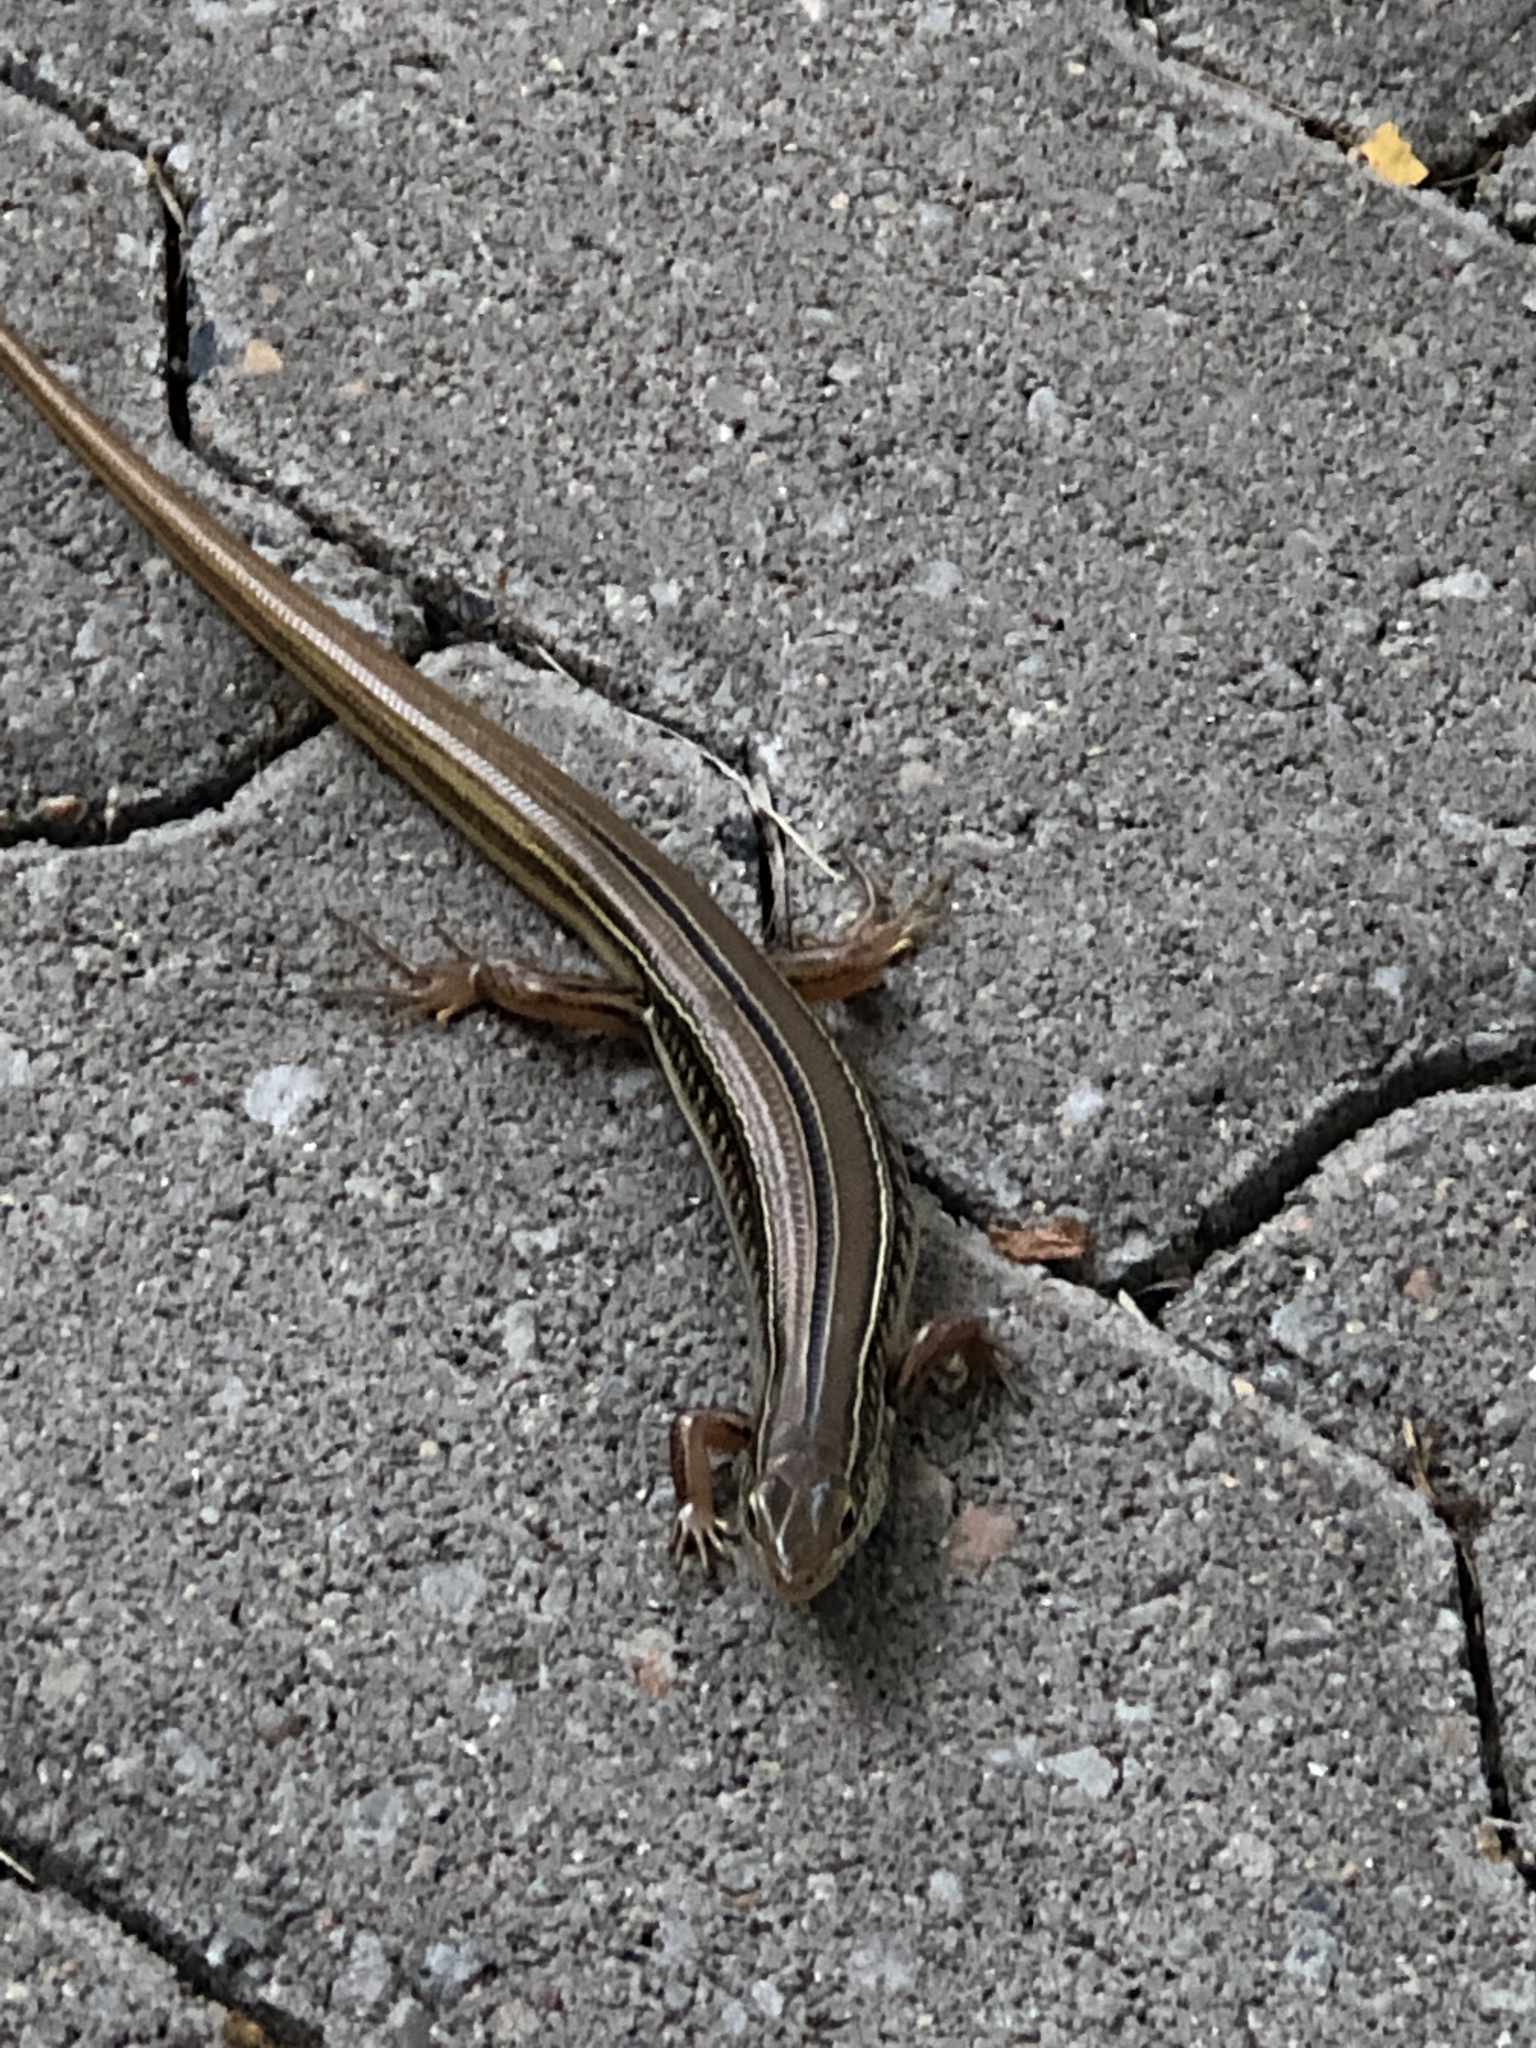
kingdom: Animalia
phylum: Chordata
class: Squamata
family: Scincidae
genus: Ctenotus
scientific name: Ctenotus robustus
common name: Robust ctenotus
